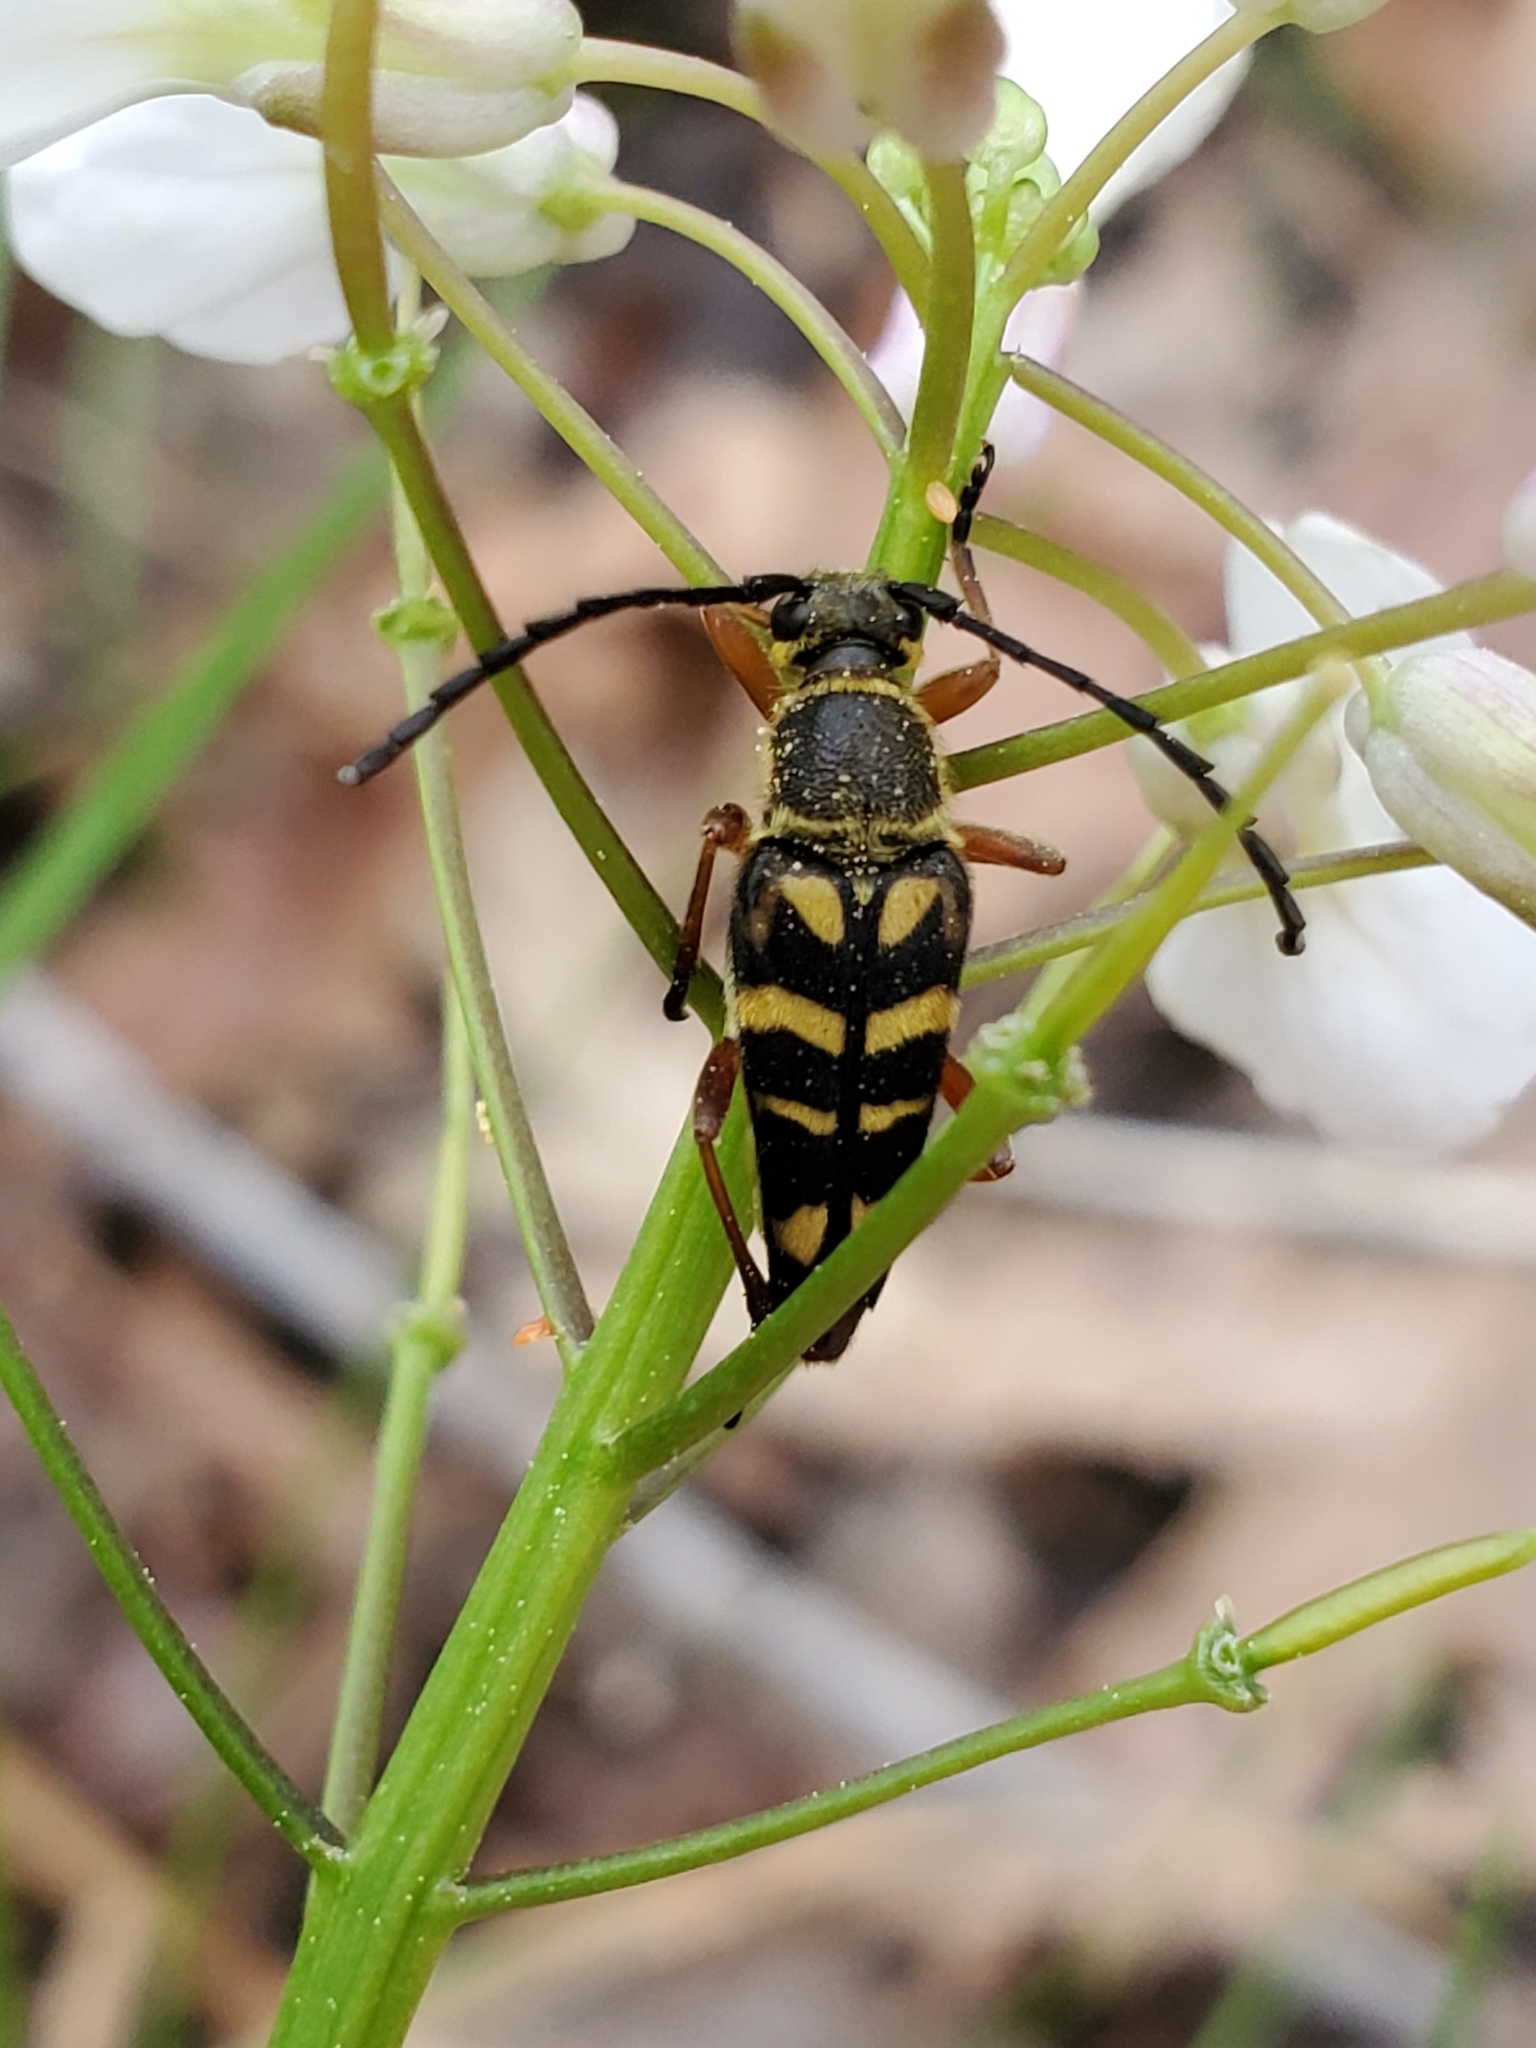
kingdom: Animalia
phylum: Arthropoda
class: Insecta
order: Coleoptera
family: Cerambycidae
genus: Typocerus
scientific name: Typocerus zebra
